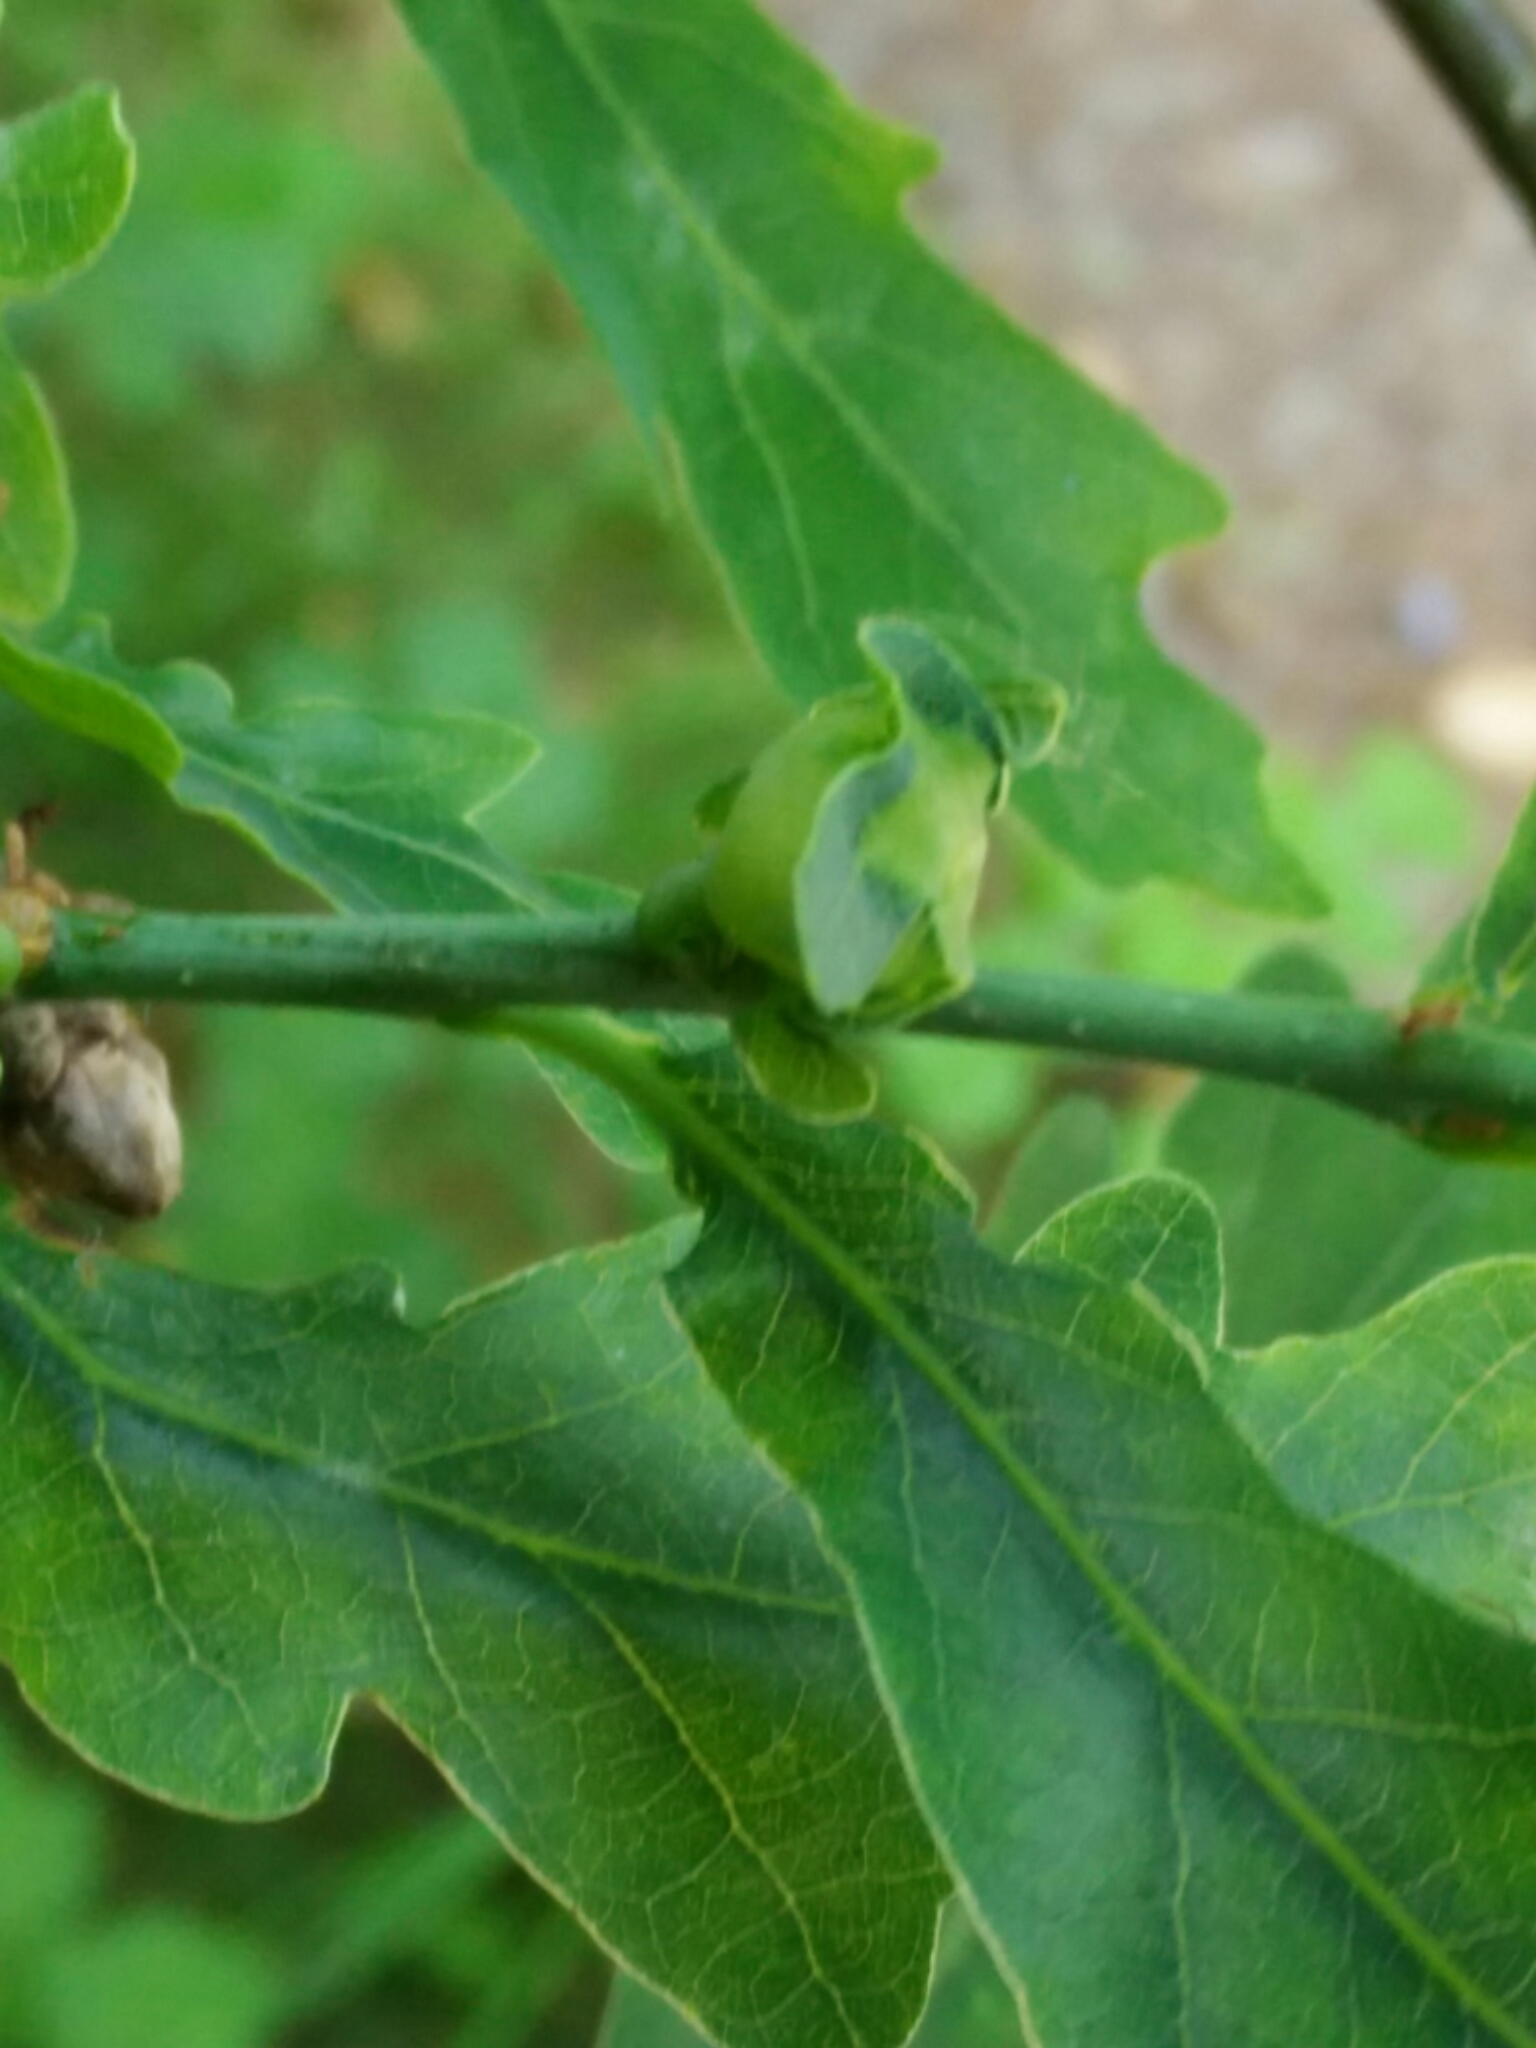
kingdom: Animalia
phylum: Arthropoda
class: Insecta
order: Hymenoptera
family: Cynipidae
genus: Andricus
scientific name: Andricus curvator
